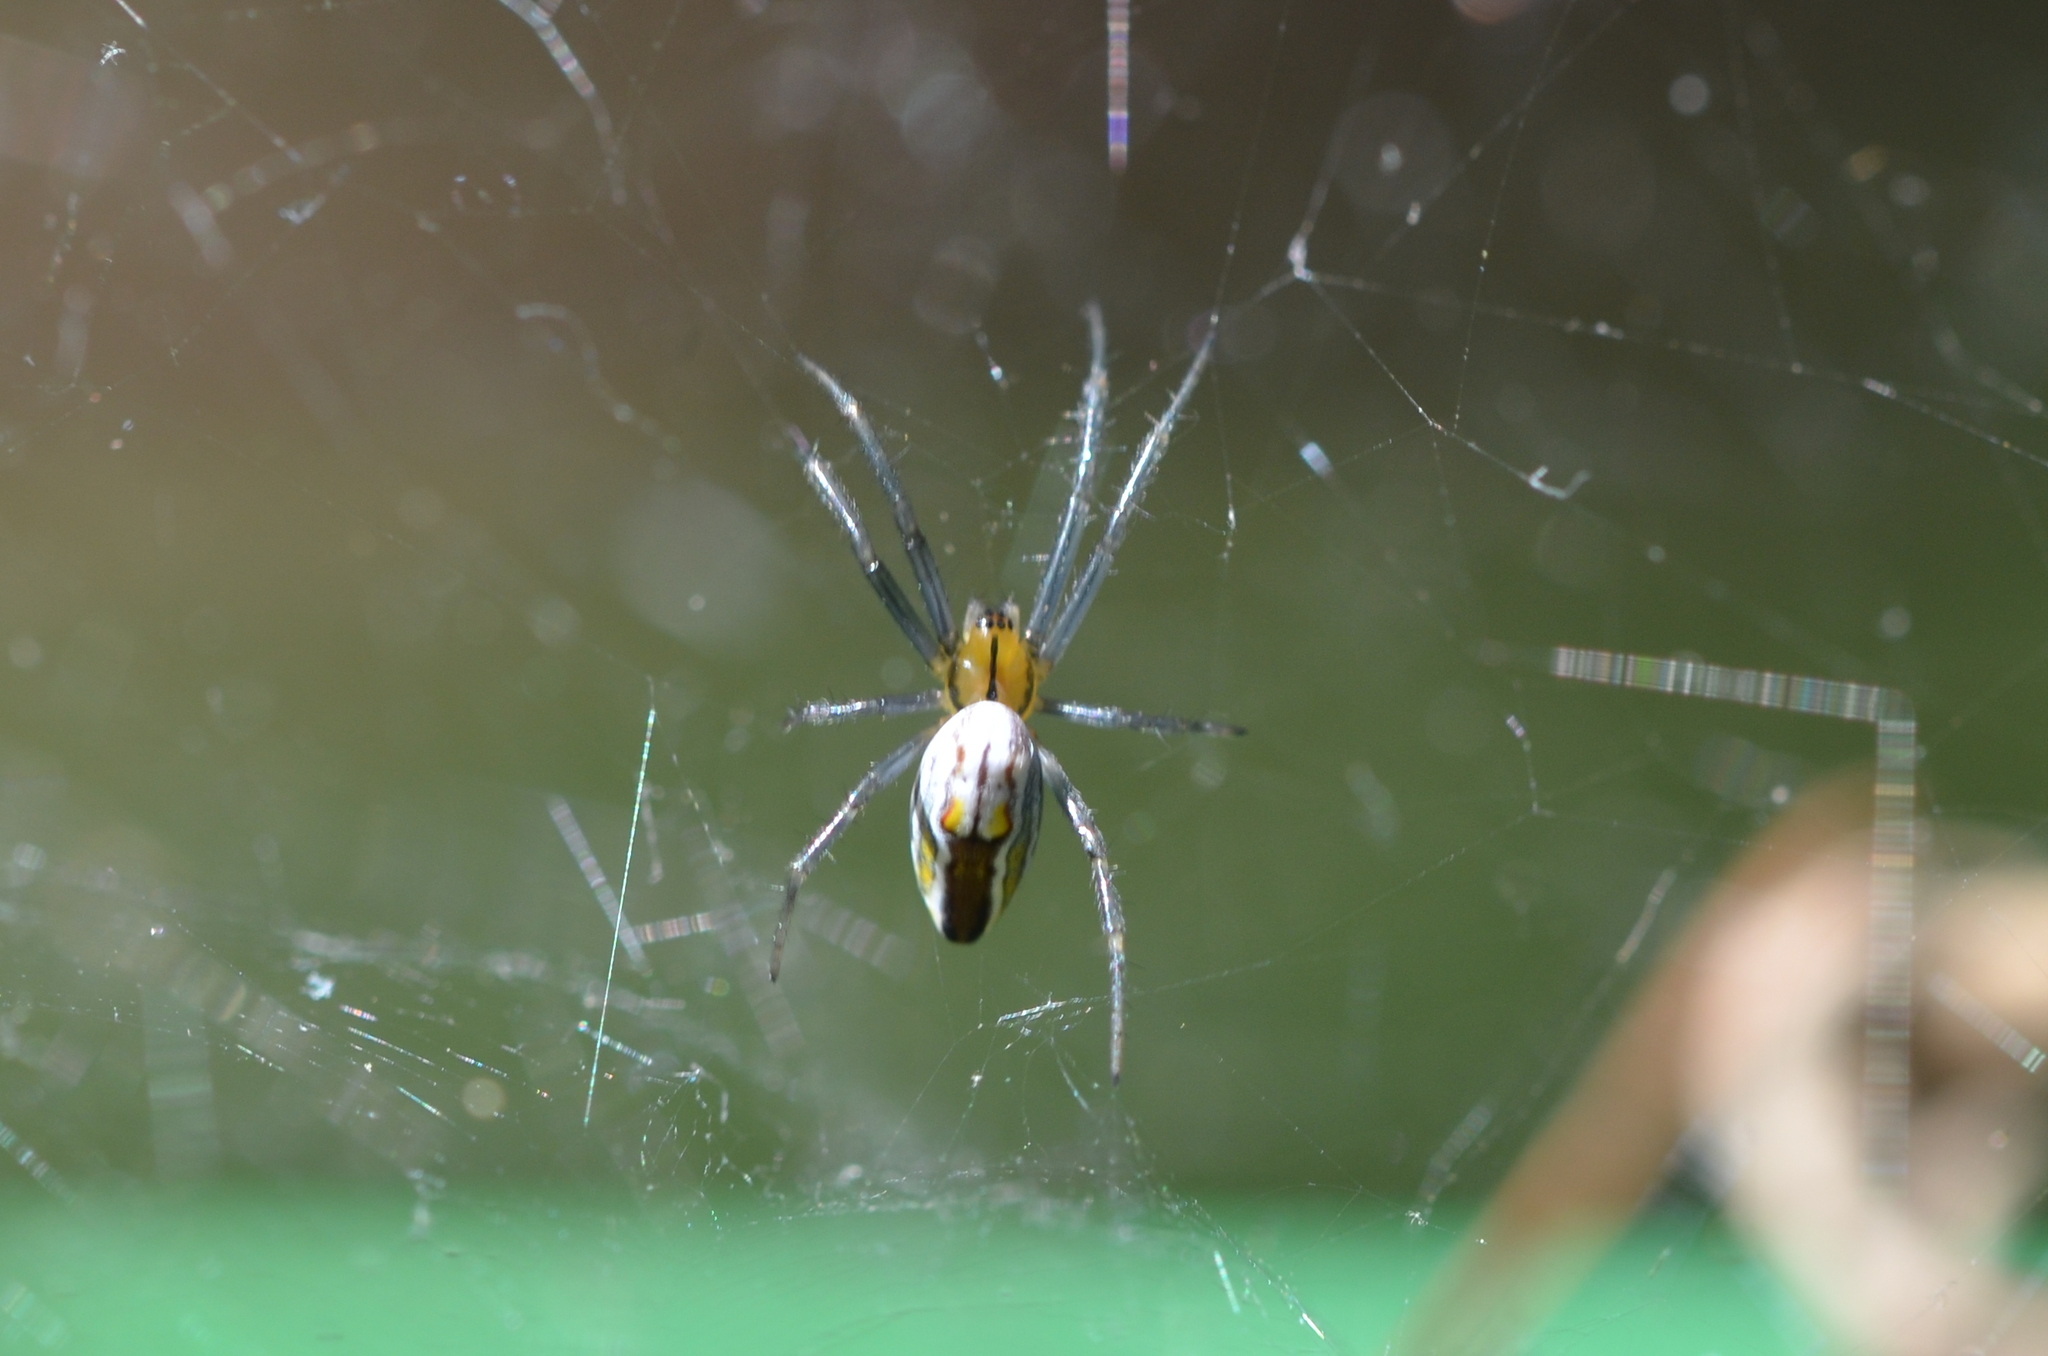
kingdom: Animalia
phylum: Arthropoda
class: Arachnida
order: Araneae
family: Araneidae
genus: Mecynogea
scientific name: Mecynogea lemniscata
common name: Orb weavers
